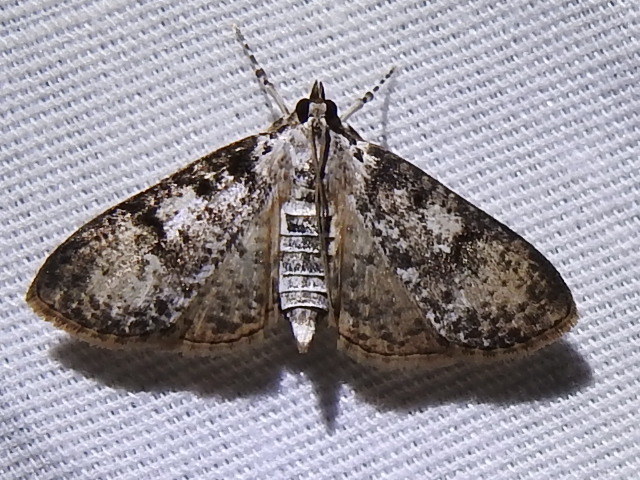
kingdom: Animalia
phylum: Arthropoda
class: Insecta
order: Lepidoptera
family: Crambidae
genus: Palpita
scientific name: Palpita magniferalis
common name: Splendid palpita moth
